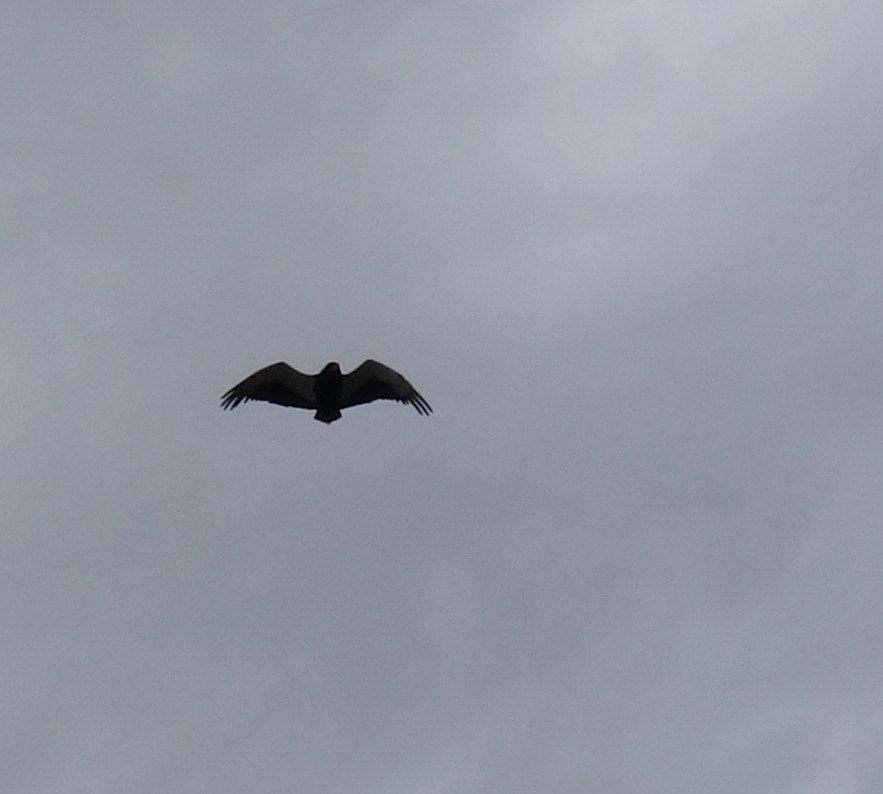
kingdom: Animalia
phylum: Chordata
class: Aves
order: Accipitriformes
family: Accipitridae
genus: Terathopius
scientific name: Terathopius ecaudatus
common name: Bateleur
